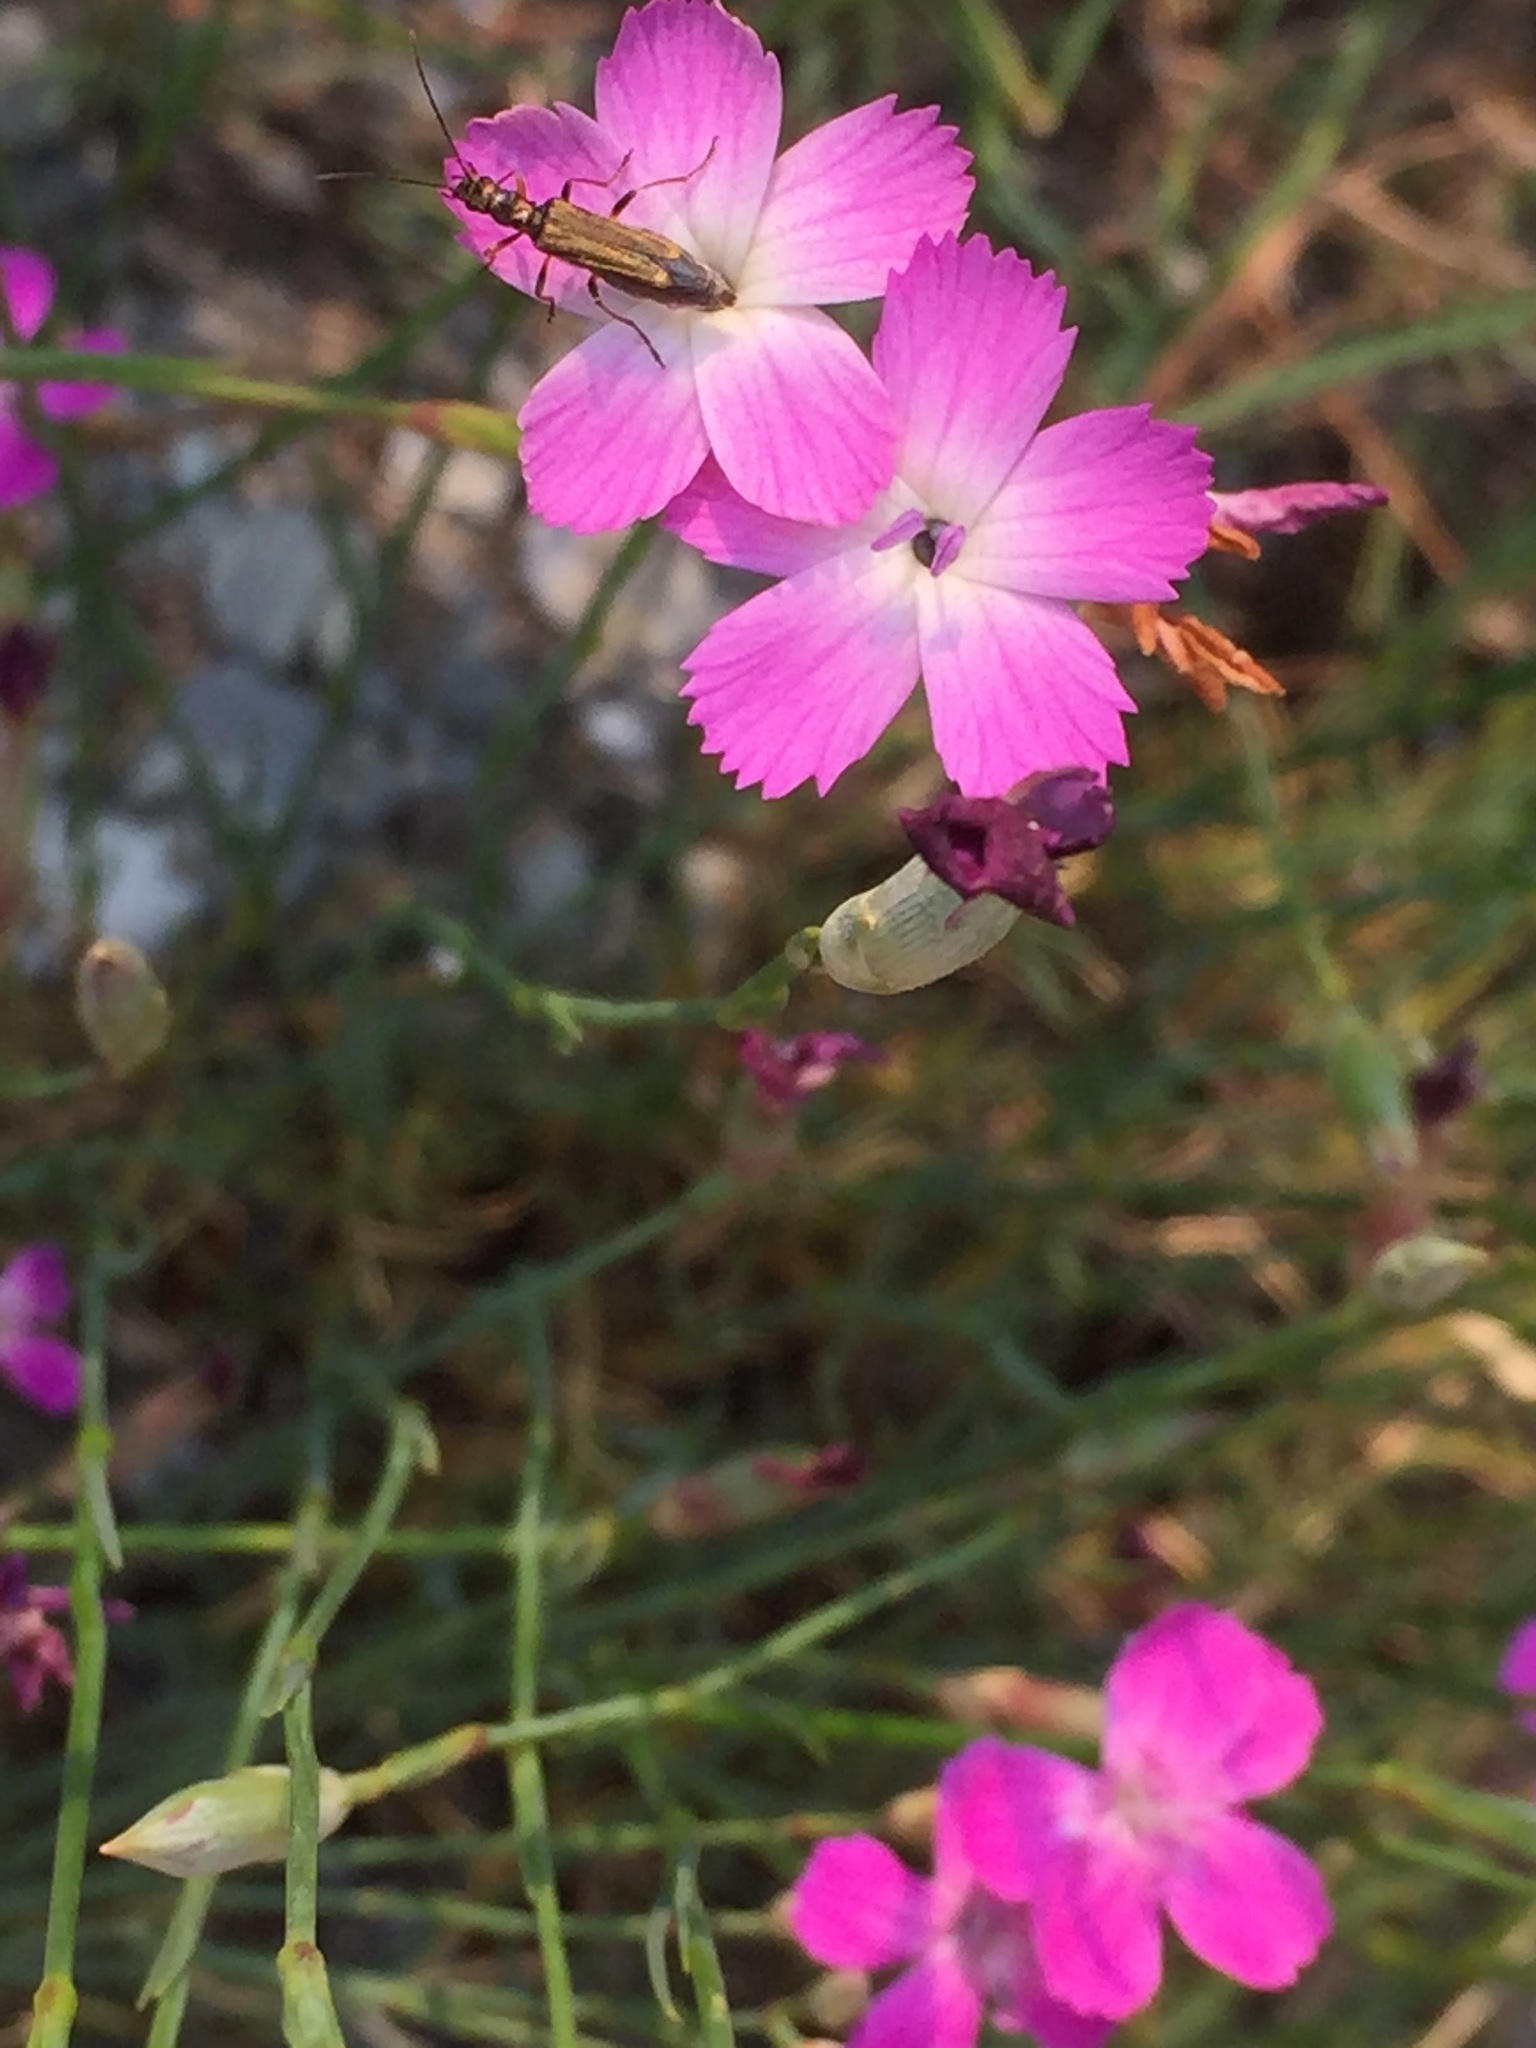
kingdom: Plantae
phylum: Tracheophyta
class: Magnoliopsida
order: Caryophyllales
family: Caryophyllaceae
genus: Dianthus
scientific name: Dianthus lusitanus
